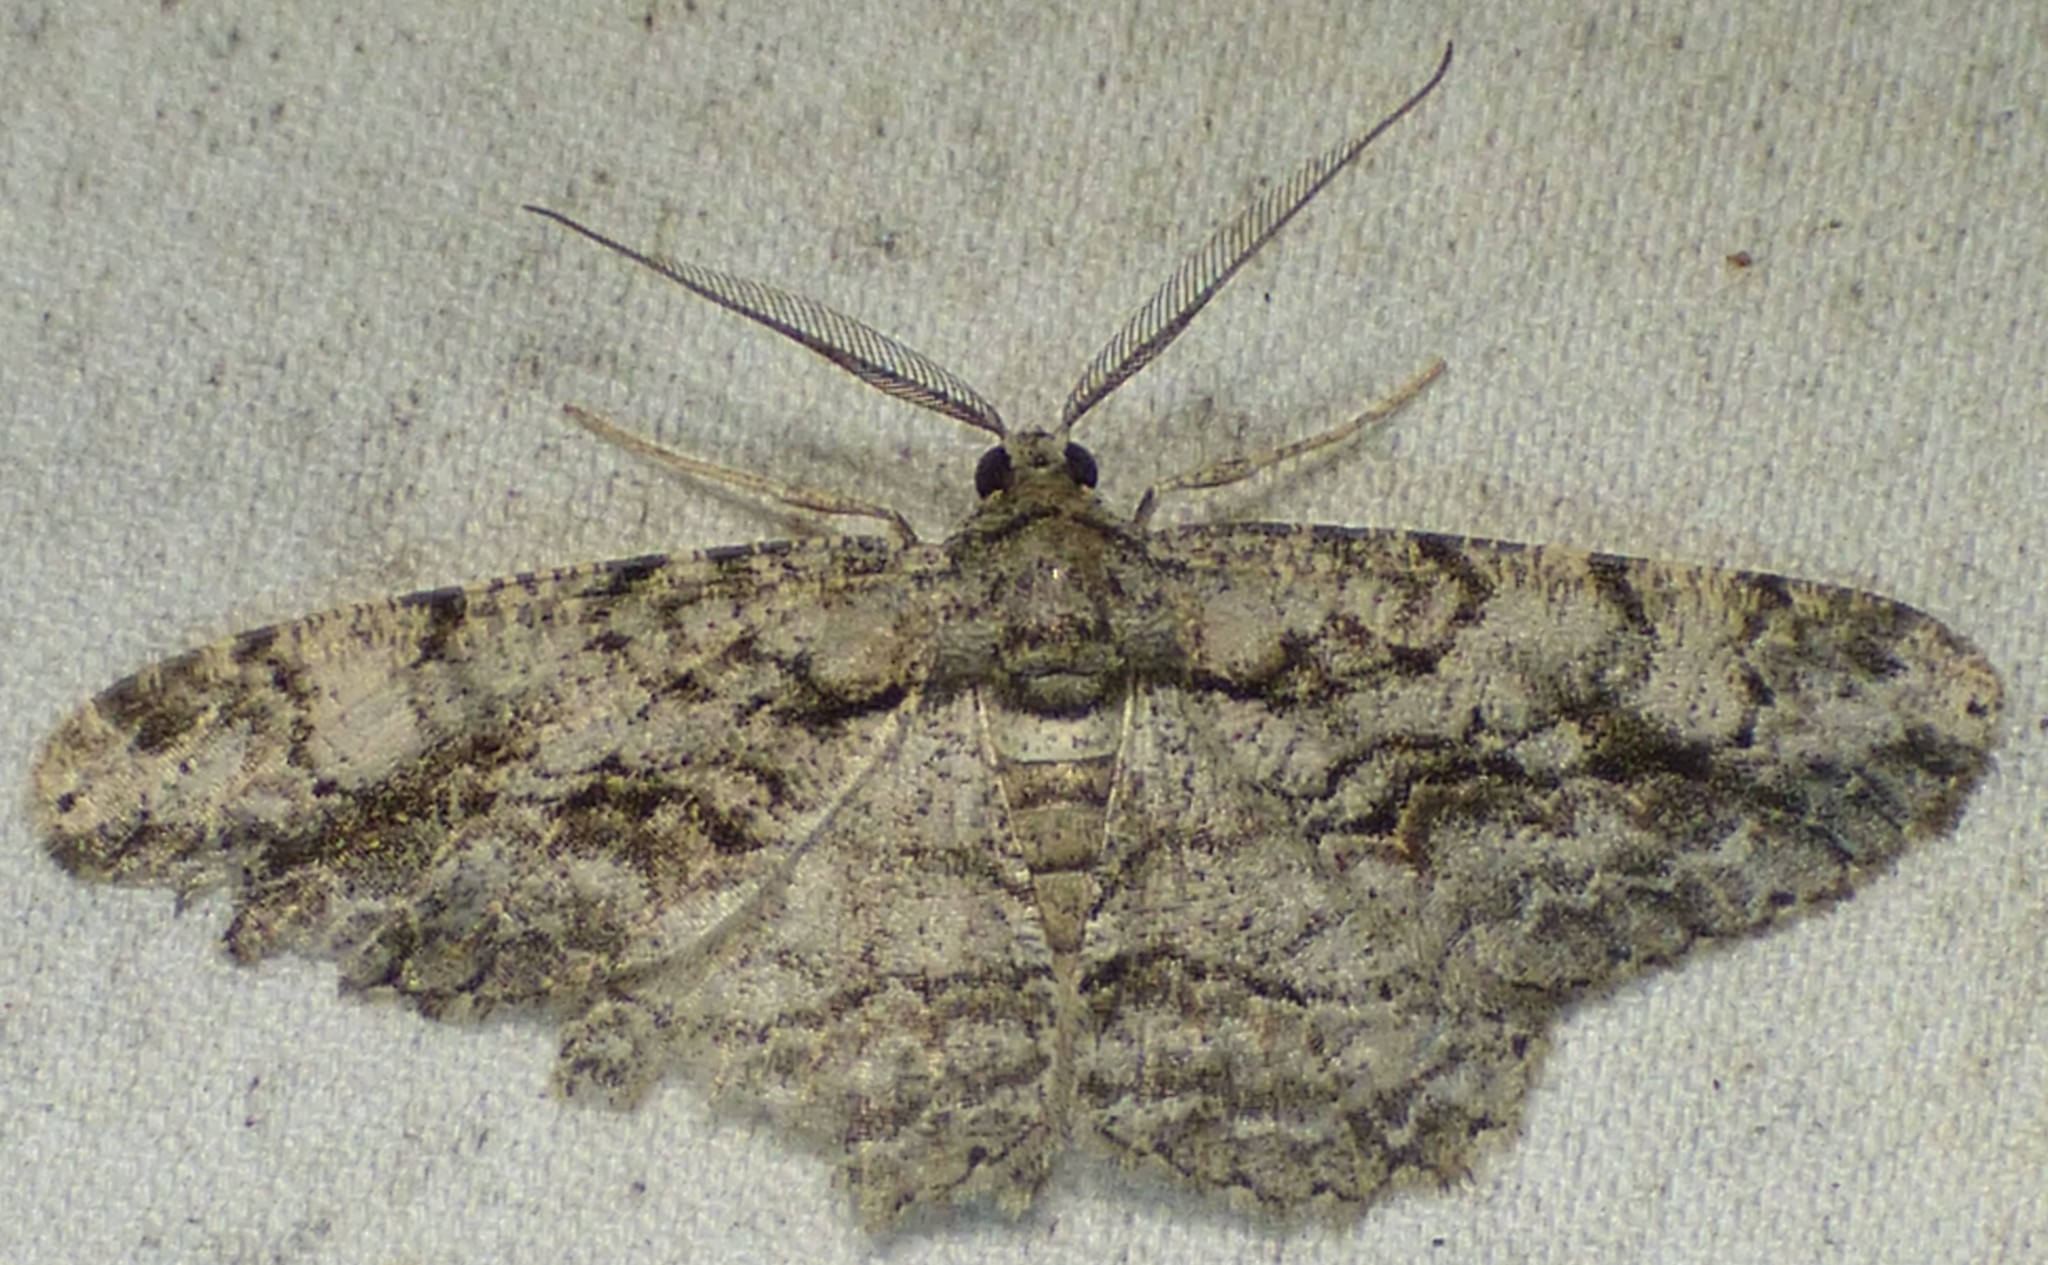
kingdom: Animalia
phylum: Arthropoda
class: Insecta
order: Lepidoptera
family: Geometridae
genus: Anavitrinella
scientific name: Anavitrinella pampinaria
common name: Common gray
